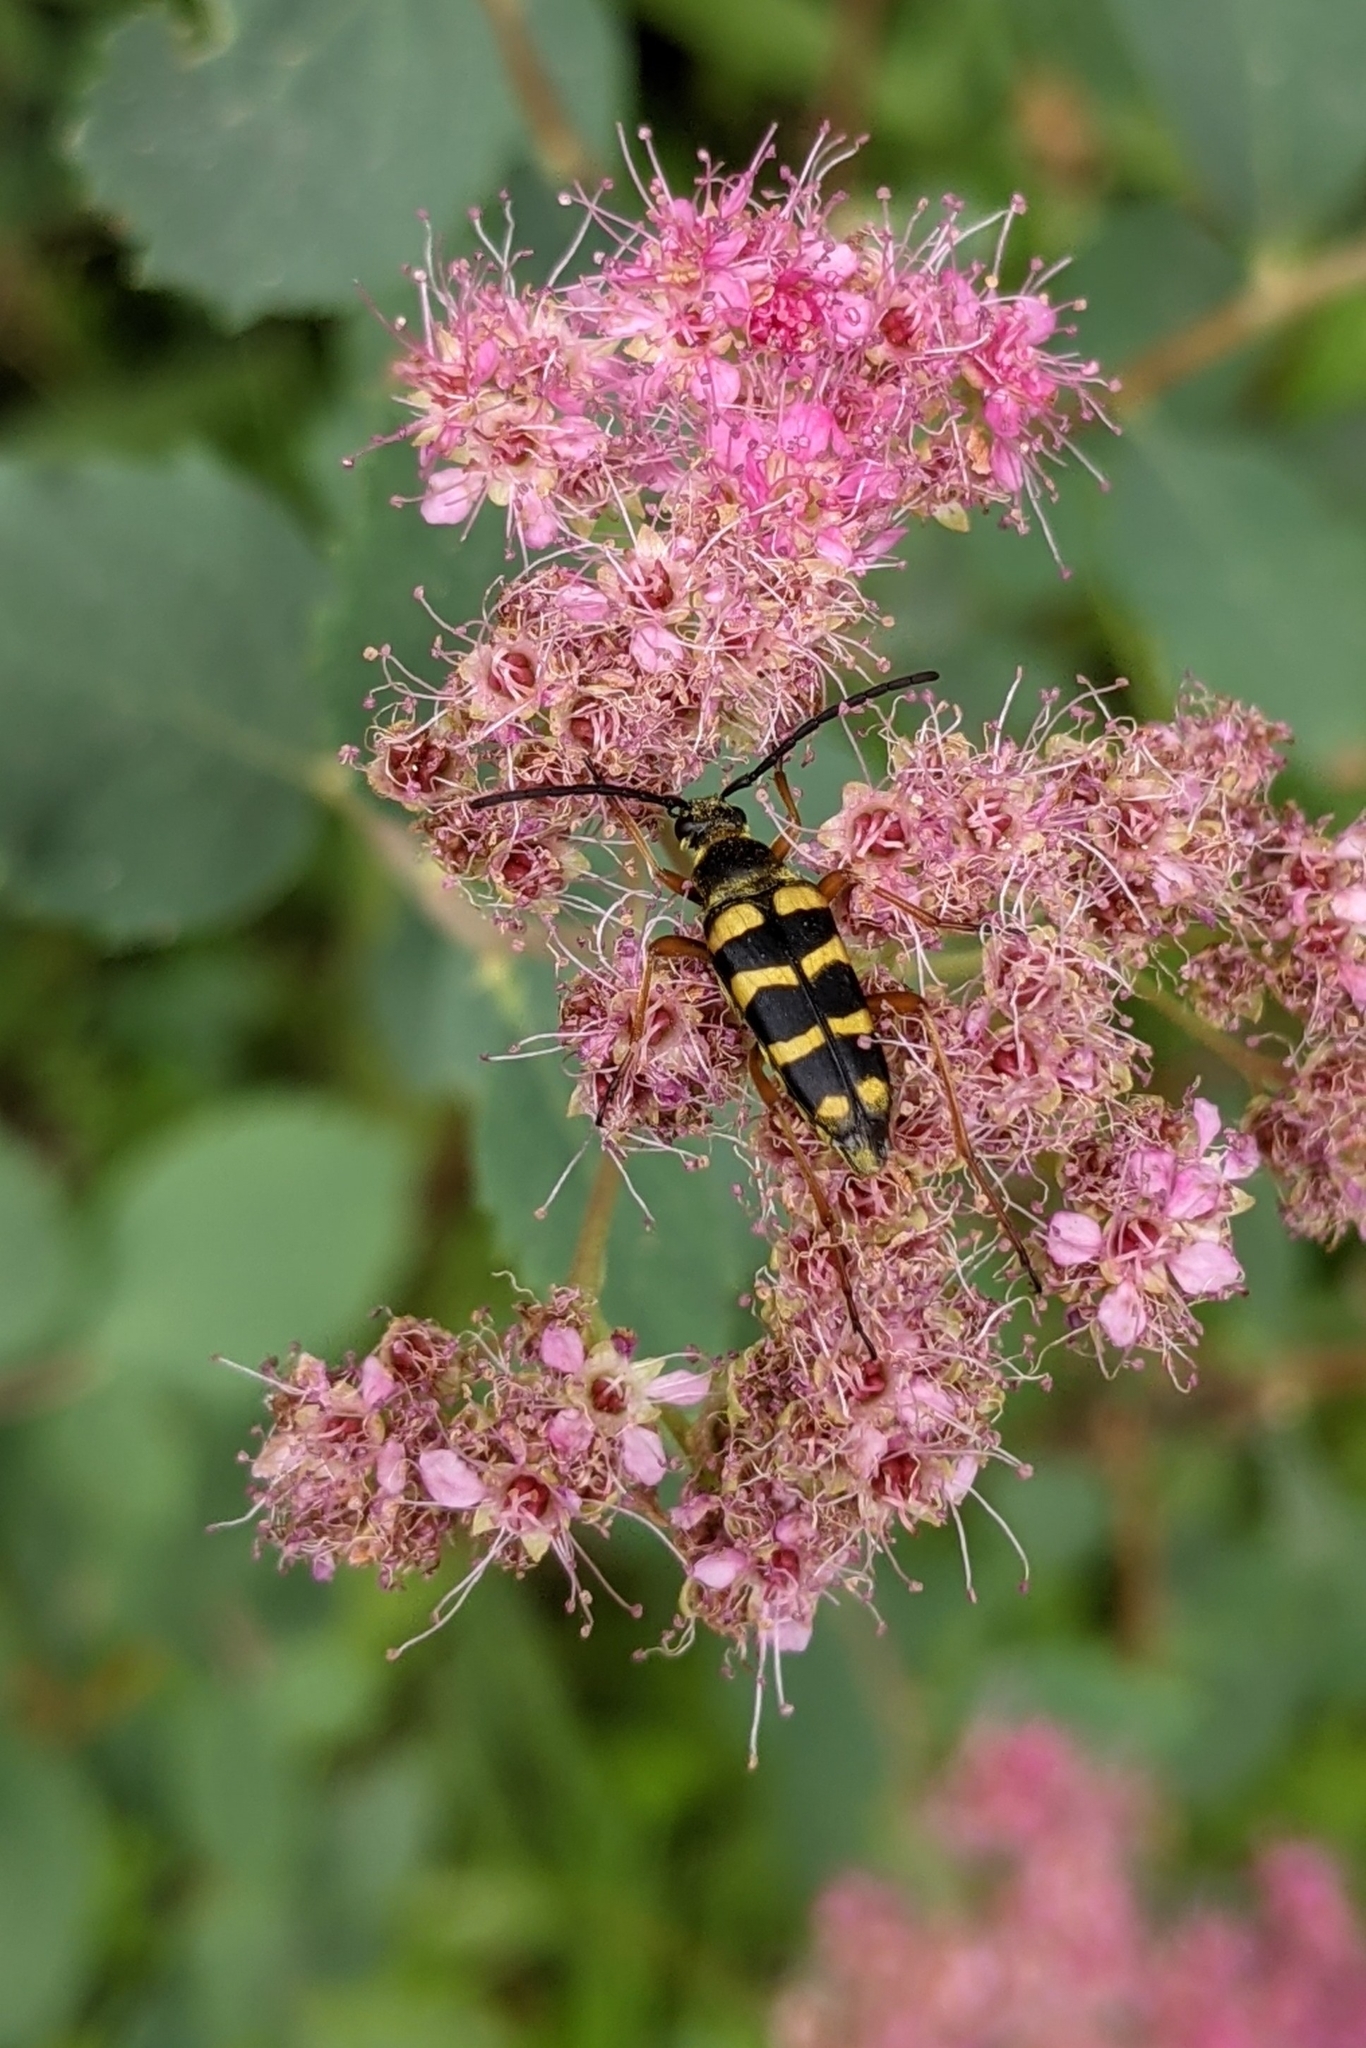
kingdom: Animalia
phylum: Arthropoda
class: Insecta
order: Coleoptera
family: Cerambycidae
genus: Stenostrophia
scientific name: Stenostrophia tribalteata
